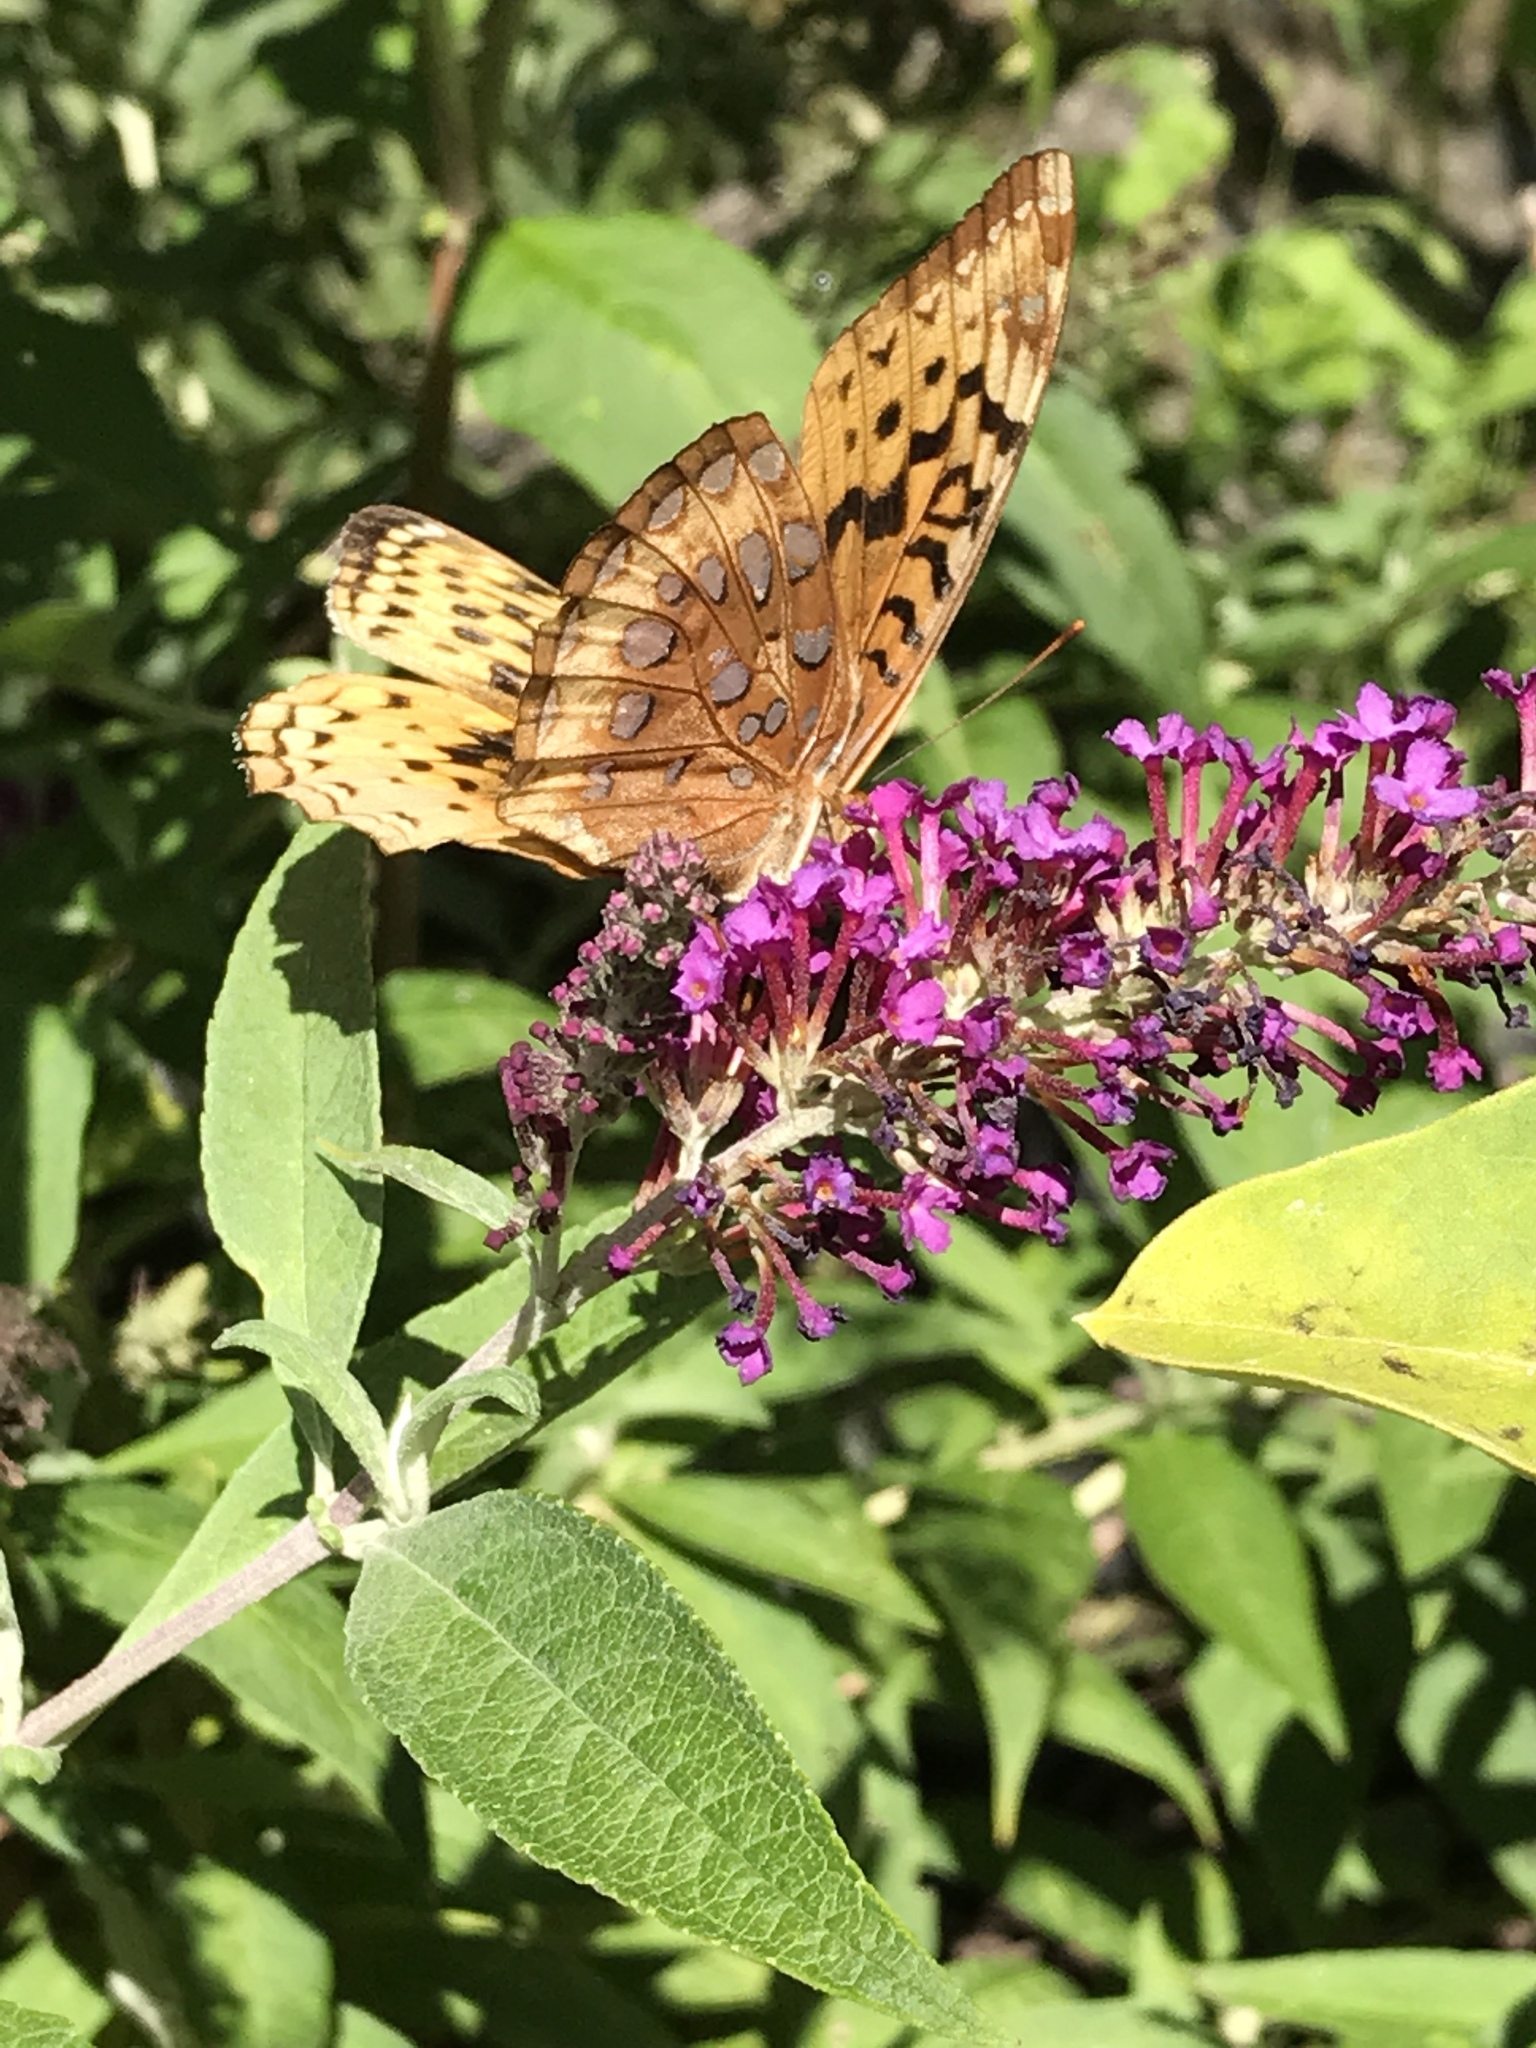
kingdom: Animalia
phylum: Arthropoda
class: Insecta
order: Lepidoptera
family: Nymphalidae
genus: Speyeria
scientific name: Speyeria cybele
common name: Great spangled fritillary
